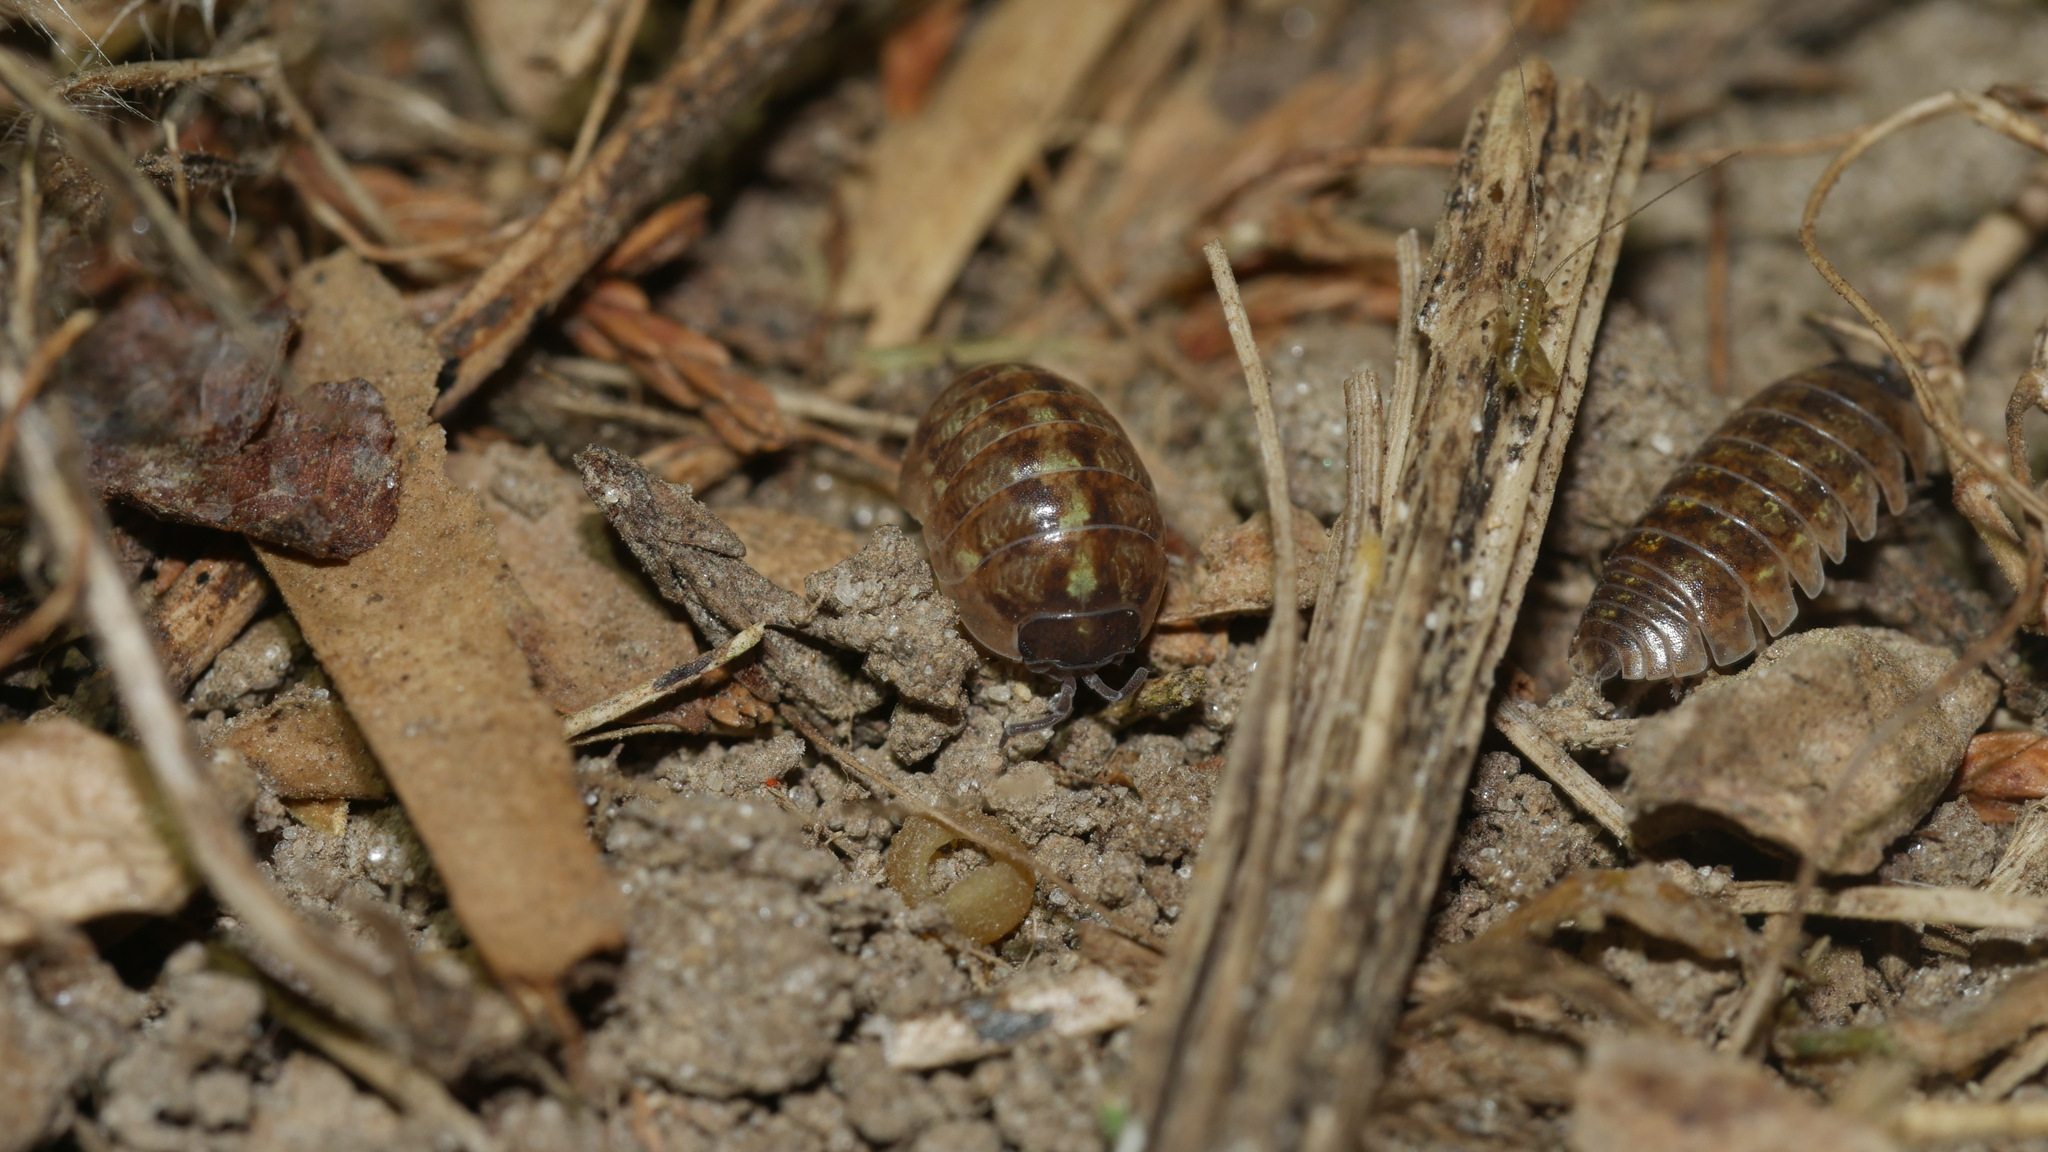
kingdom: Animalia
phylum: Arthropoda
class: Malacostraca
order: Isopoda
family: Armadillidiidae
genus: Armadillidium
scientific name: Armadillidium vulgare
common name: Common pill woodlouse
